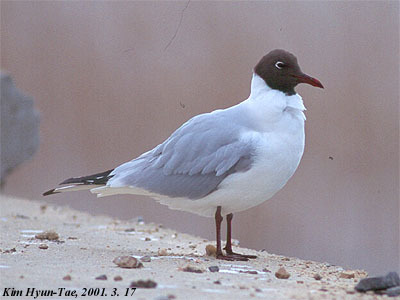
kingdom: Animalia
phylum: Chordata
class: Aves
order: Charadriiformes
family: Laridae
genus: Chroicocephalus
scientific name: Chroicocephalus ridibundus
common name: Black-headed gull
